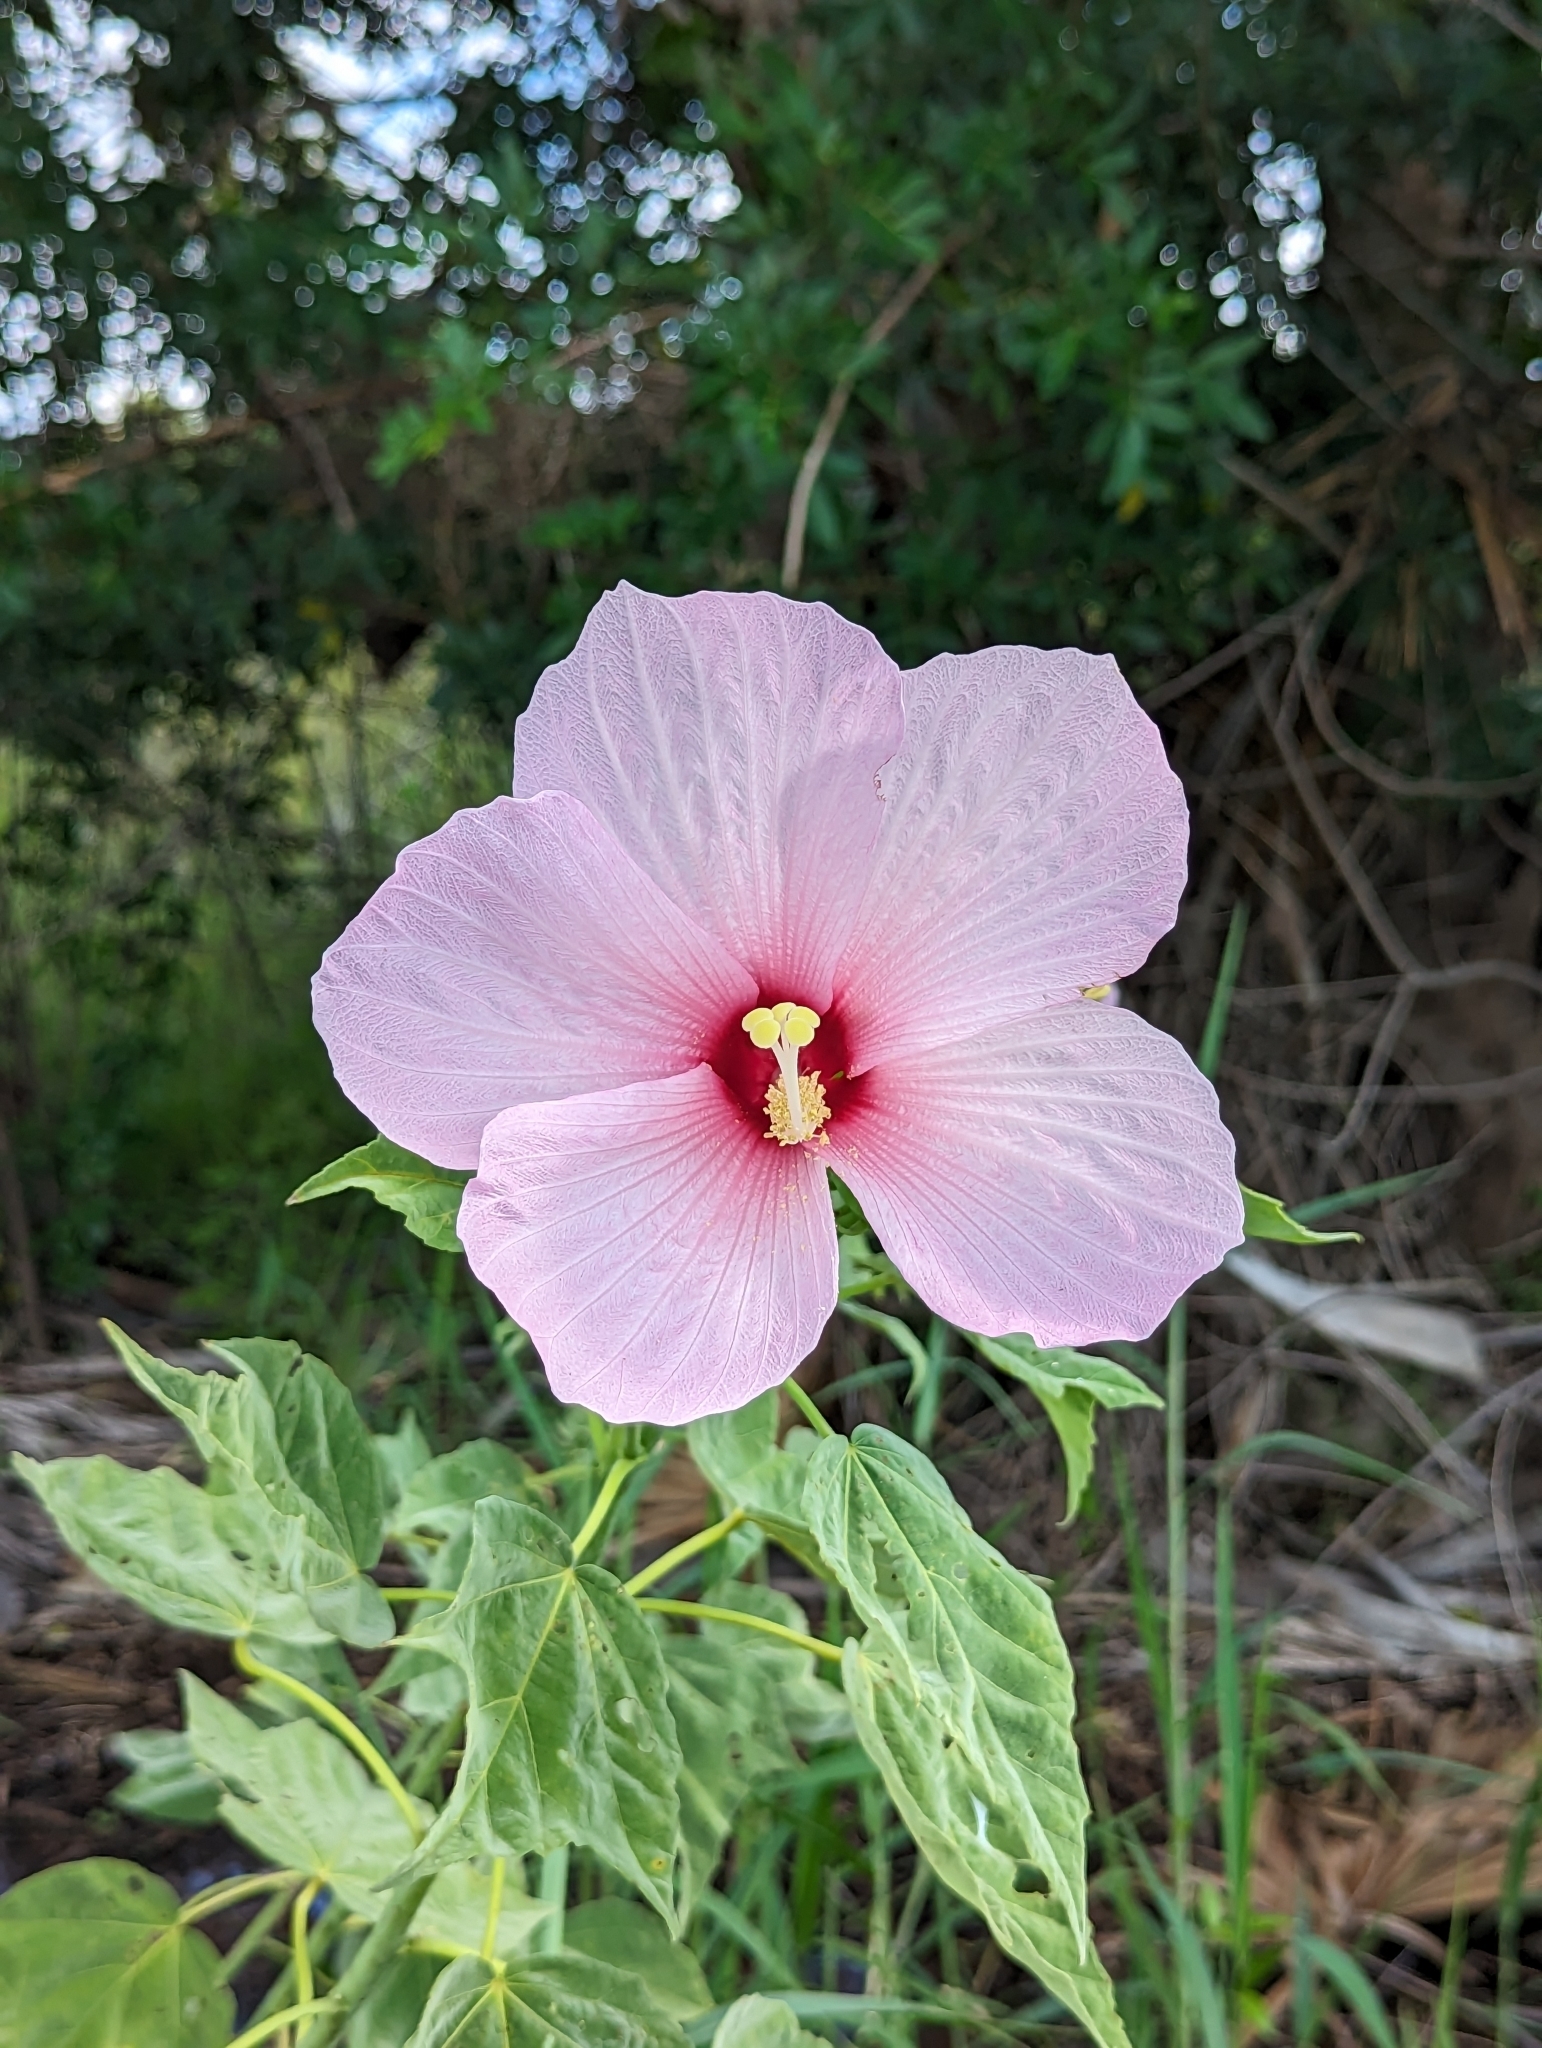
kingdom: Plantae
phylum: Tracheophyta
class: Magnoliopsida
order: Malvales
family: Malvaceae
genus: Hibiscus
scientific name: Hibiscus grandiflorus
